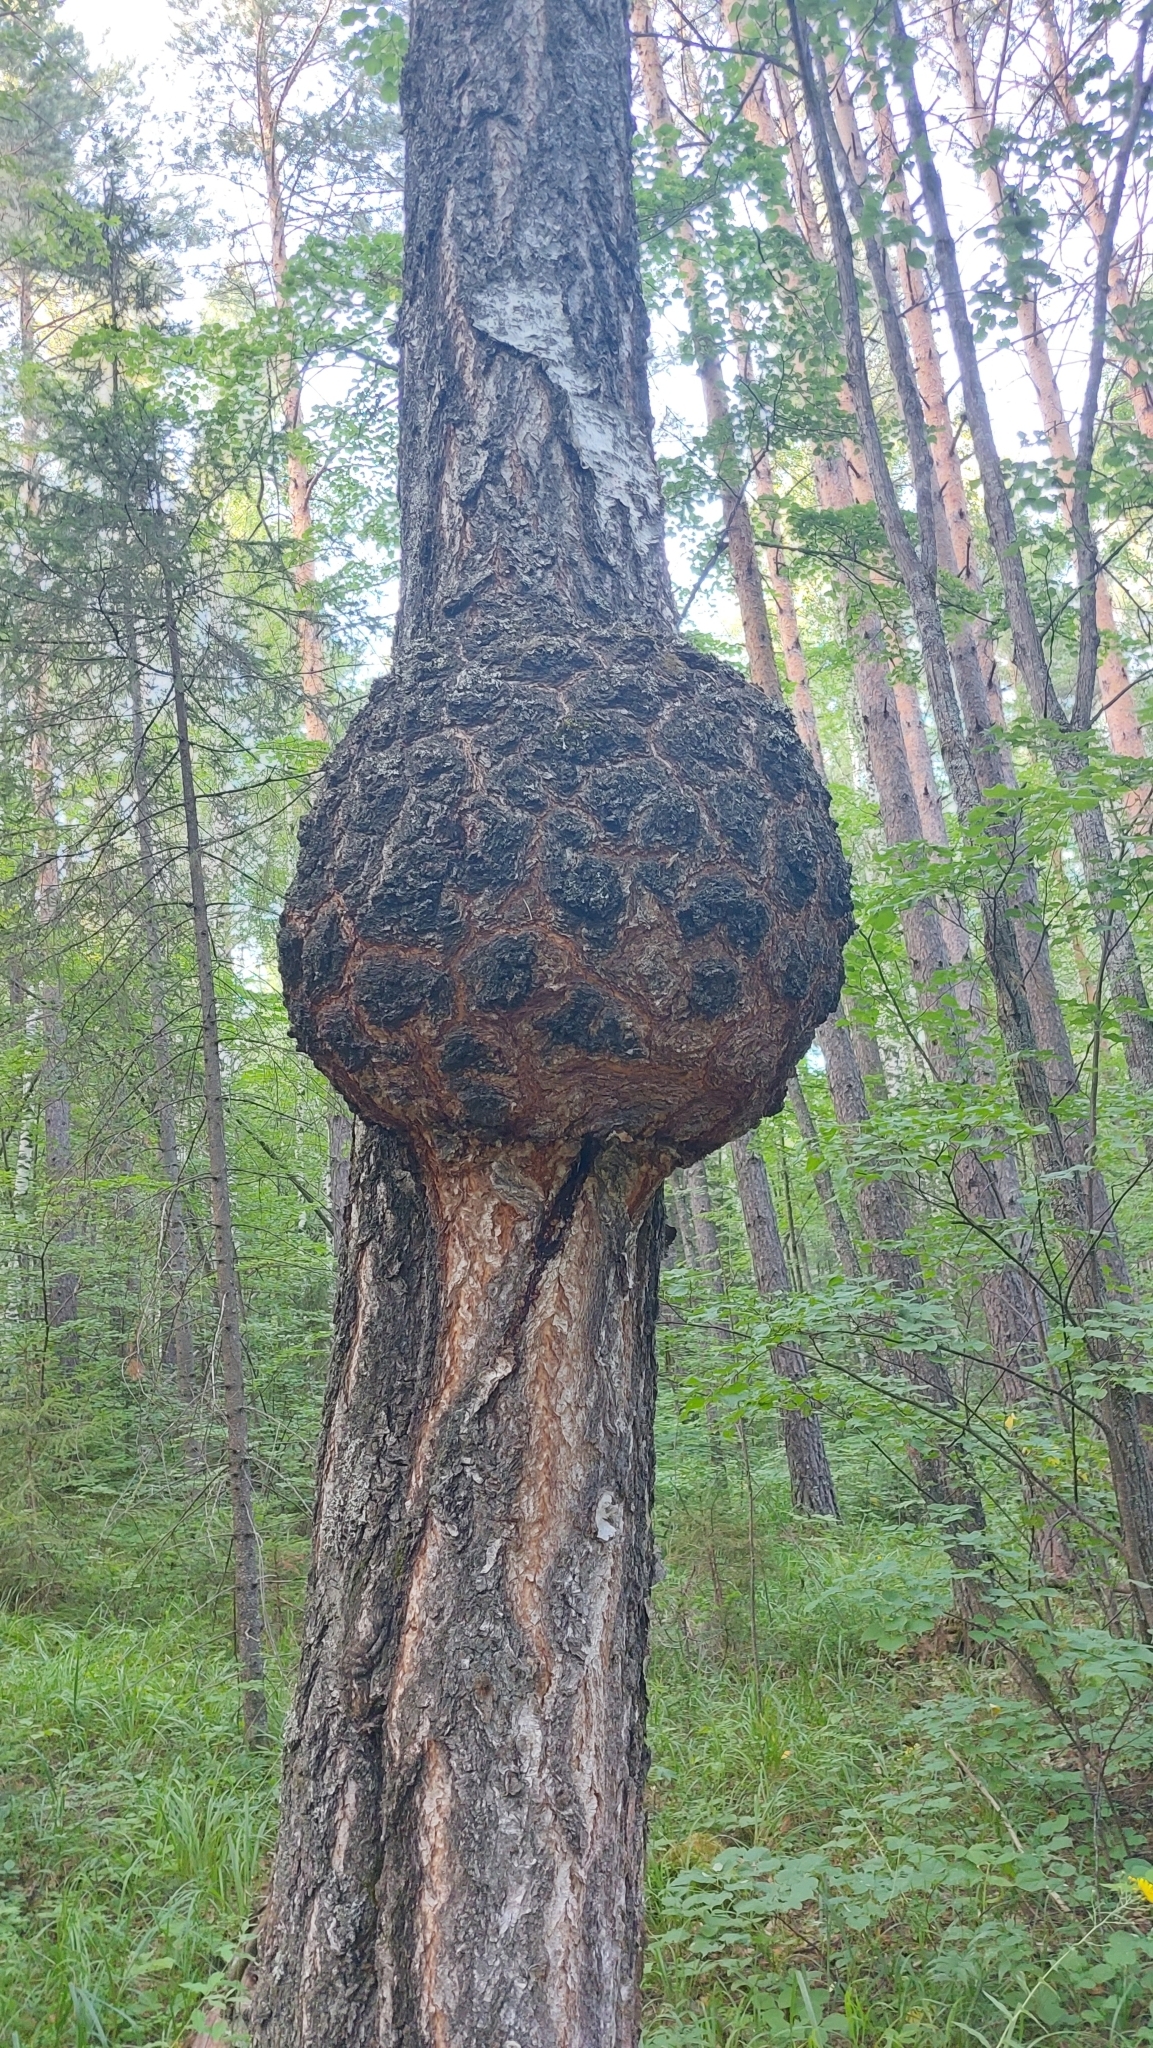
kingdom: Bacteria
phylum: Proteobacteria
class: Alphaproteobacteria
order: Rhizobiales
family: Rhizobiaceae
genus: Rhizobium
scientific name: Rhizobium Agrobacterium radiobacter
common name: Bacterial crown gall
